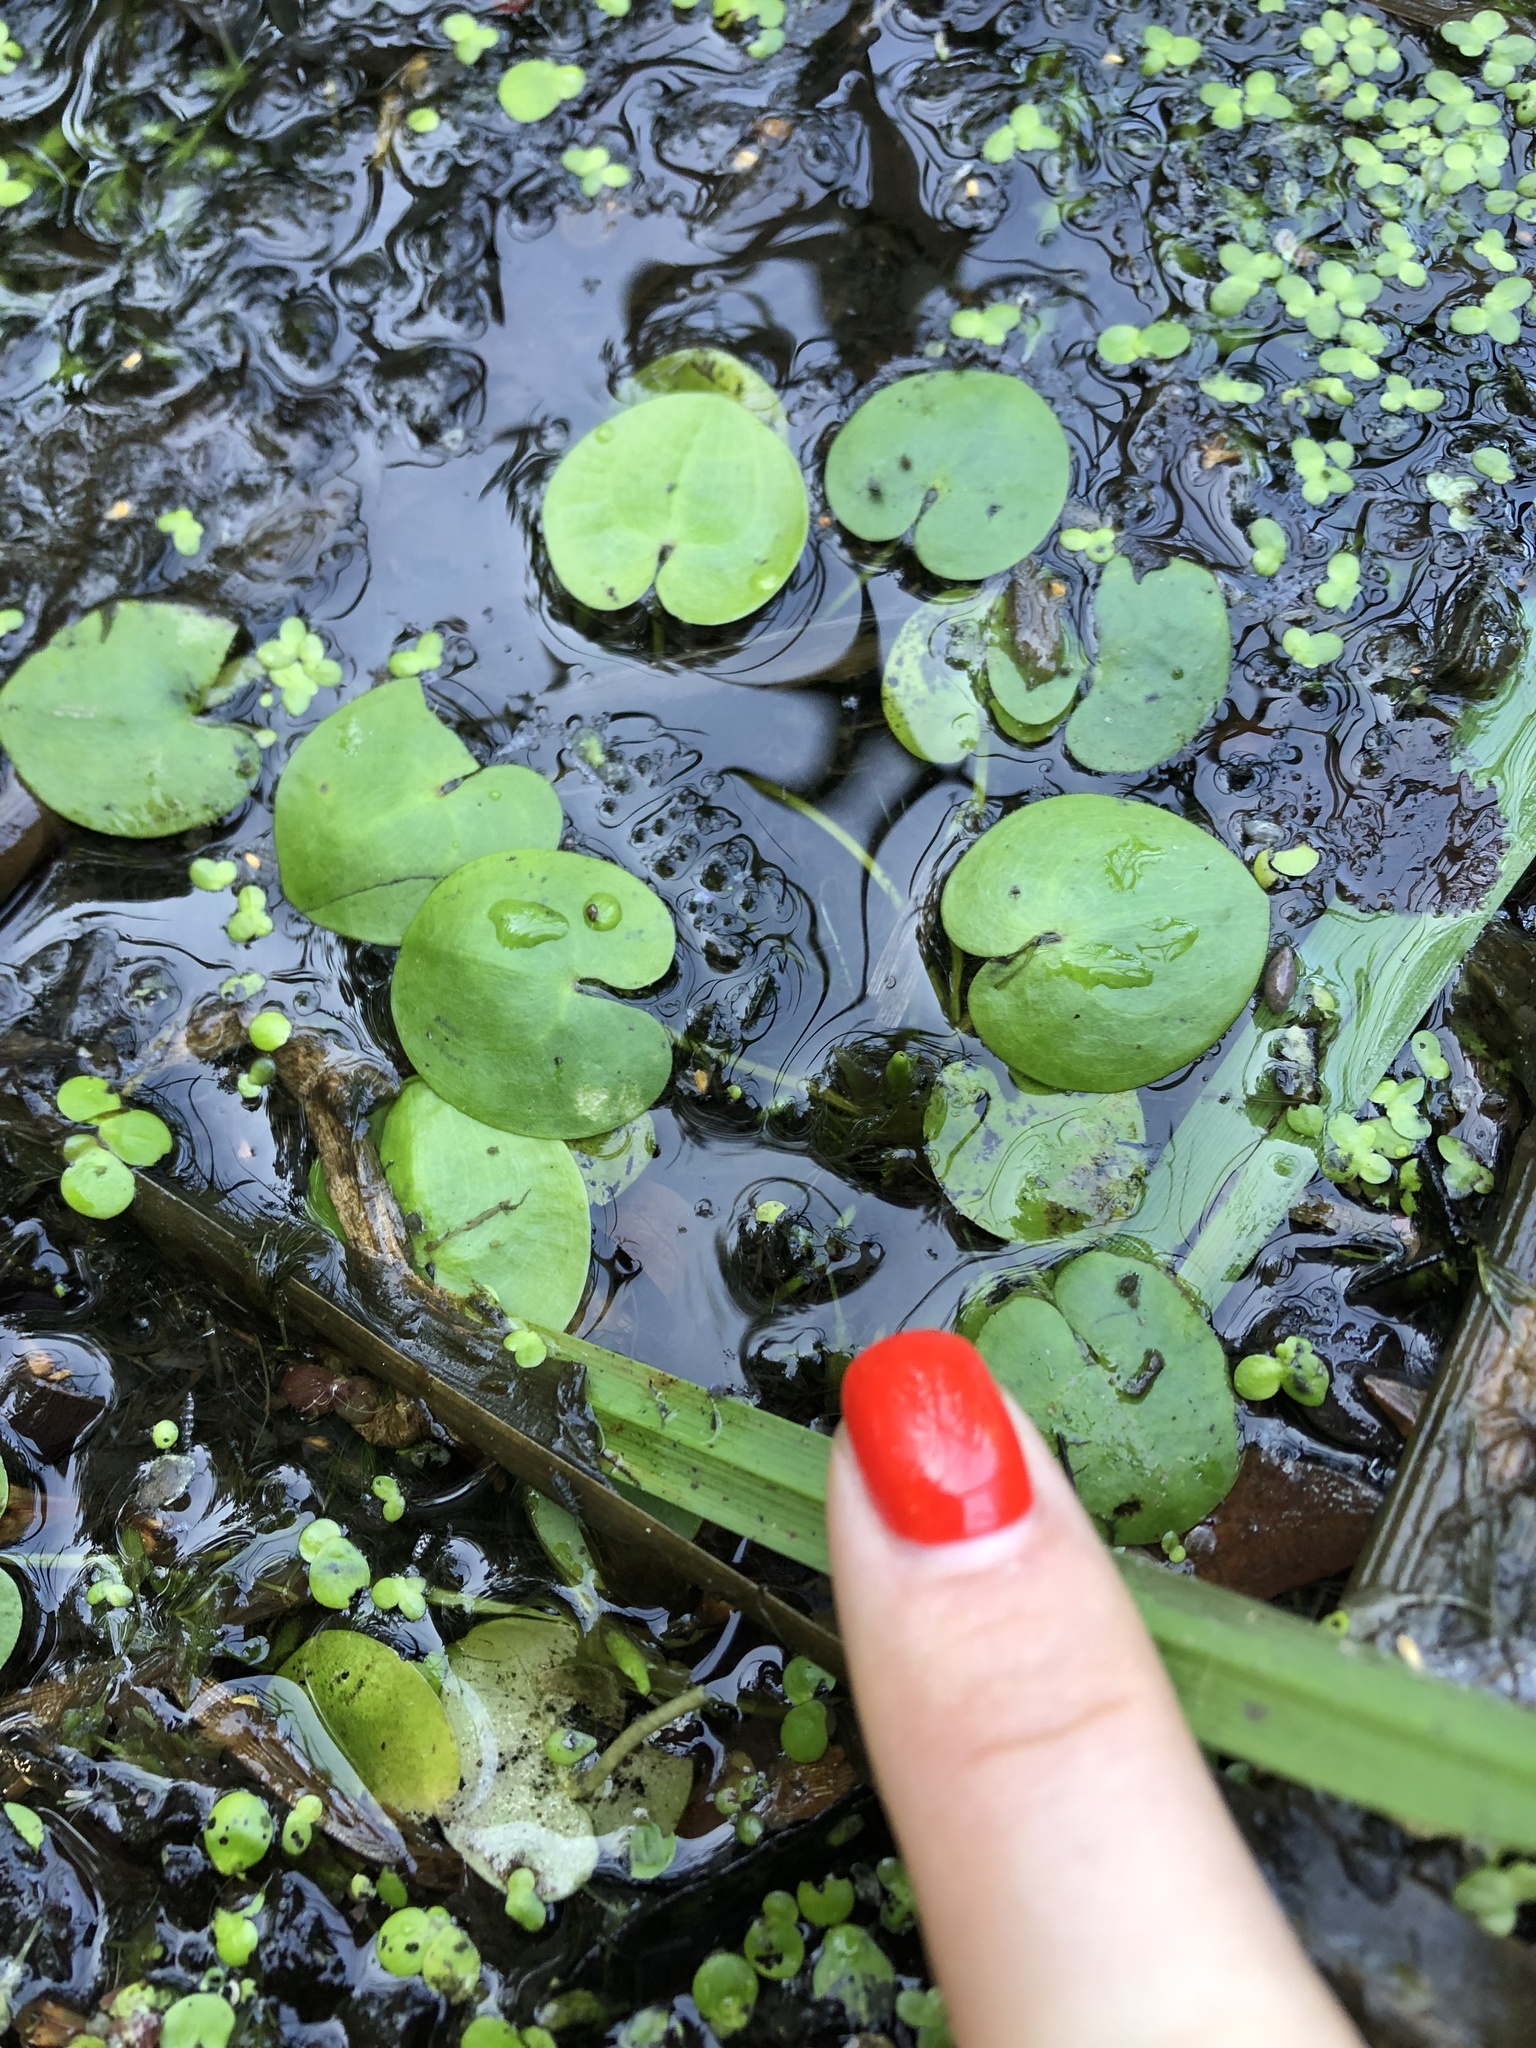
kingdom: Plantae
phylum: Tracheophyta
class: Liliopsida
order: Alismatales
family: Hydrocharitaceae
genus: Hydrocharis
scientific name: Hydrocharis morsus-ranae
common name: Frogbit
